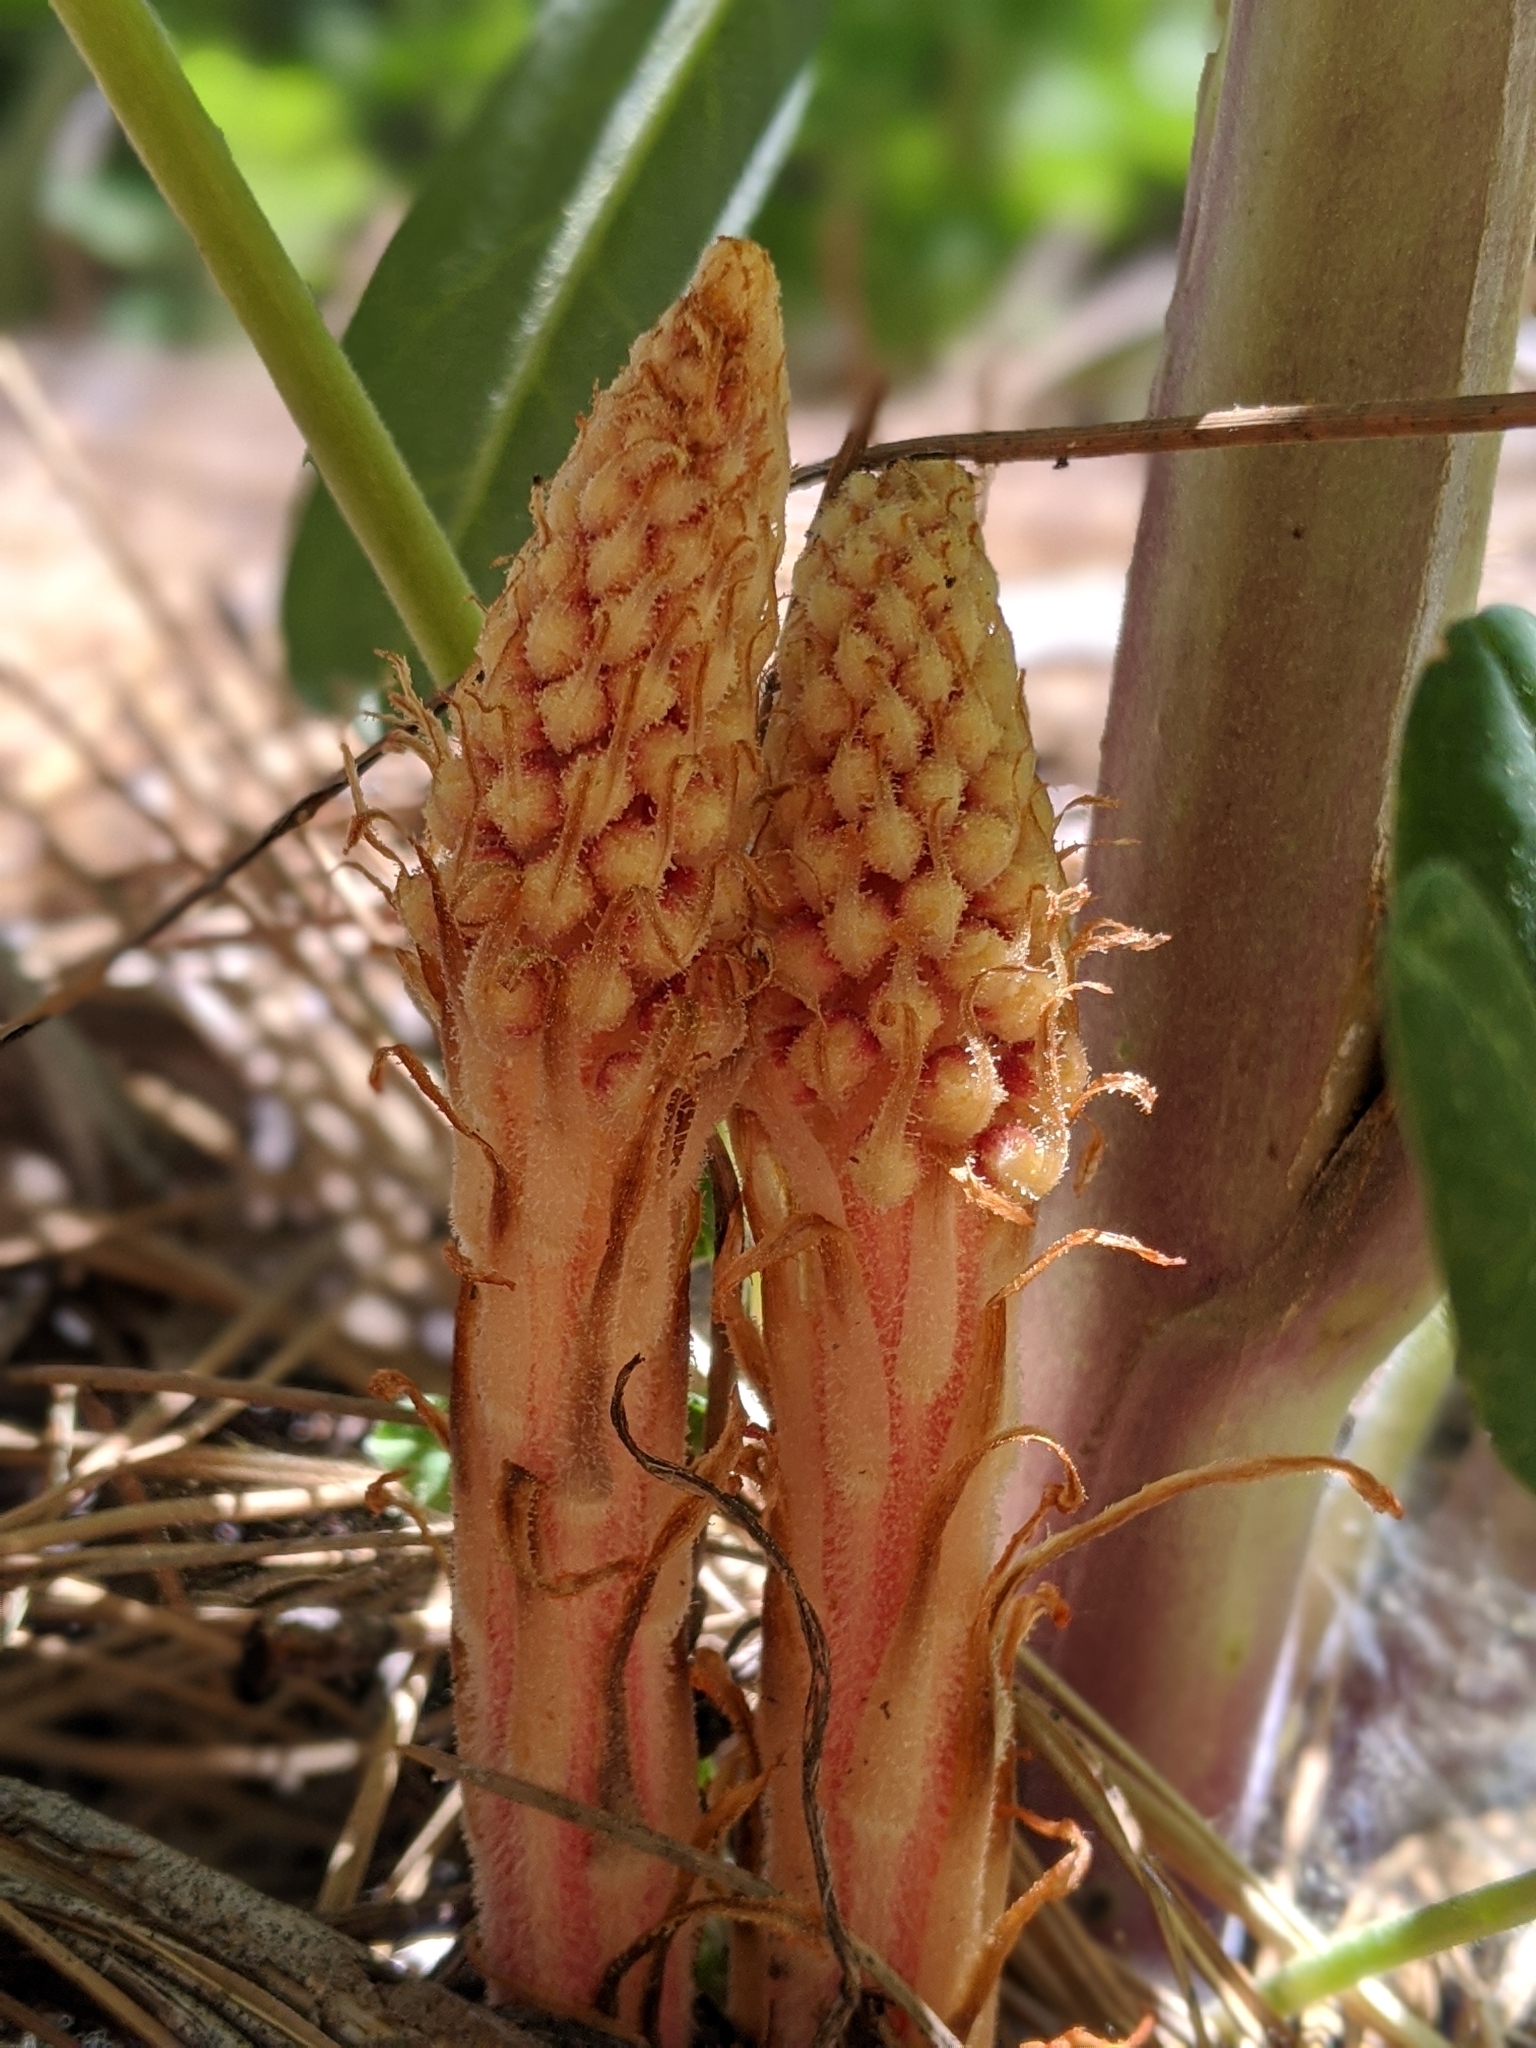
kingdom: Plantae
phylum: Tracheophyta
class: Magnoliopsida
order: Ericales
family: Ericaceae
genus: Pterospora
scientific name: Pterospora andromedea
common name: Giant bird's-nest
